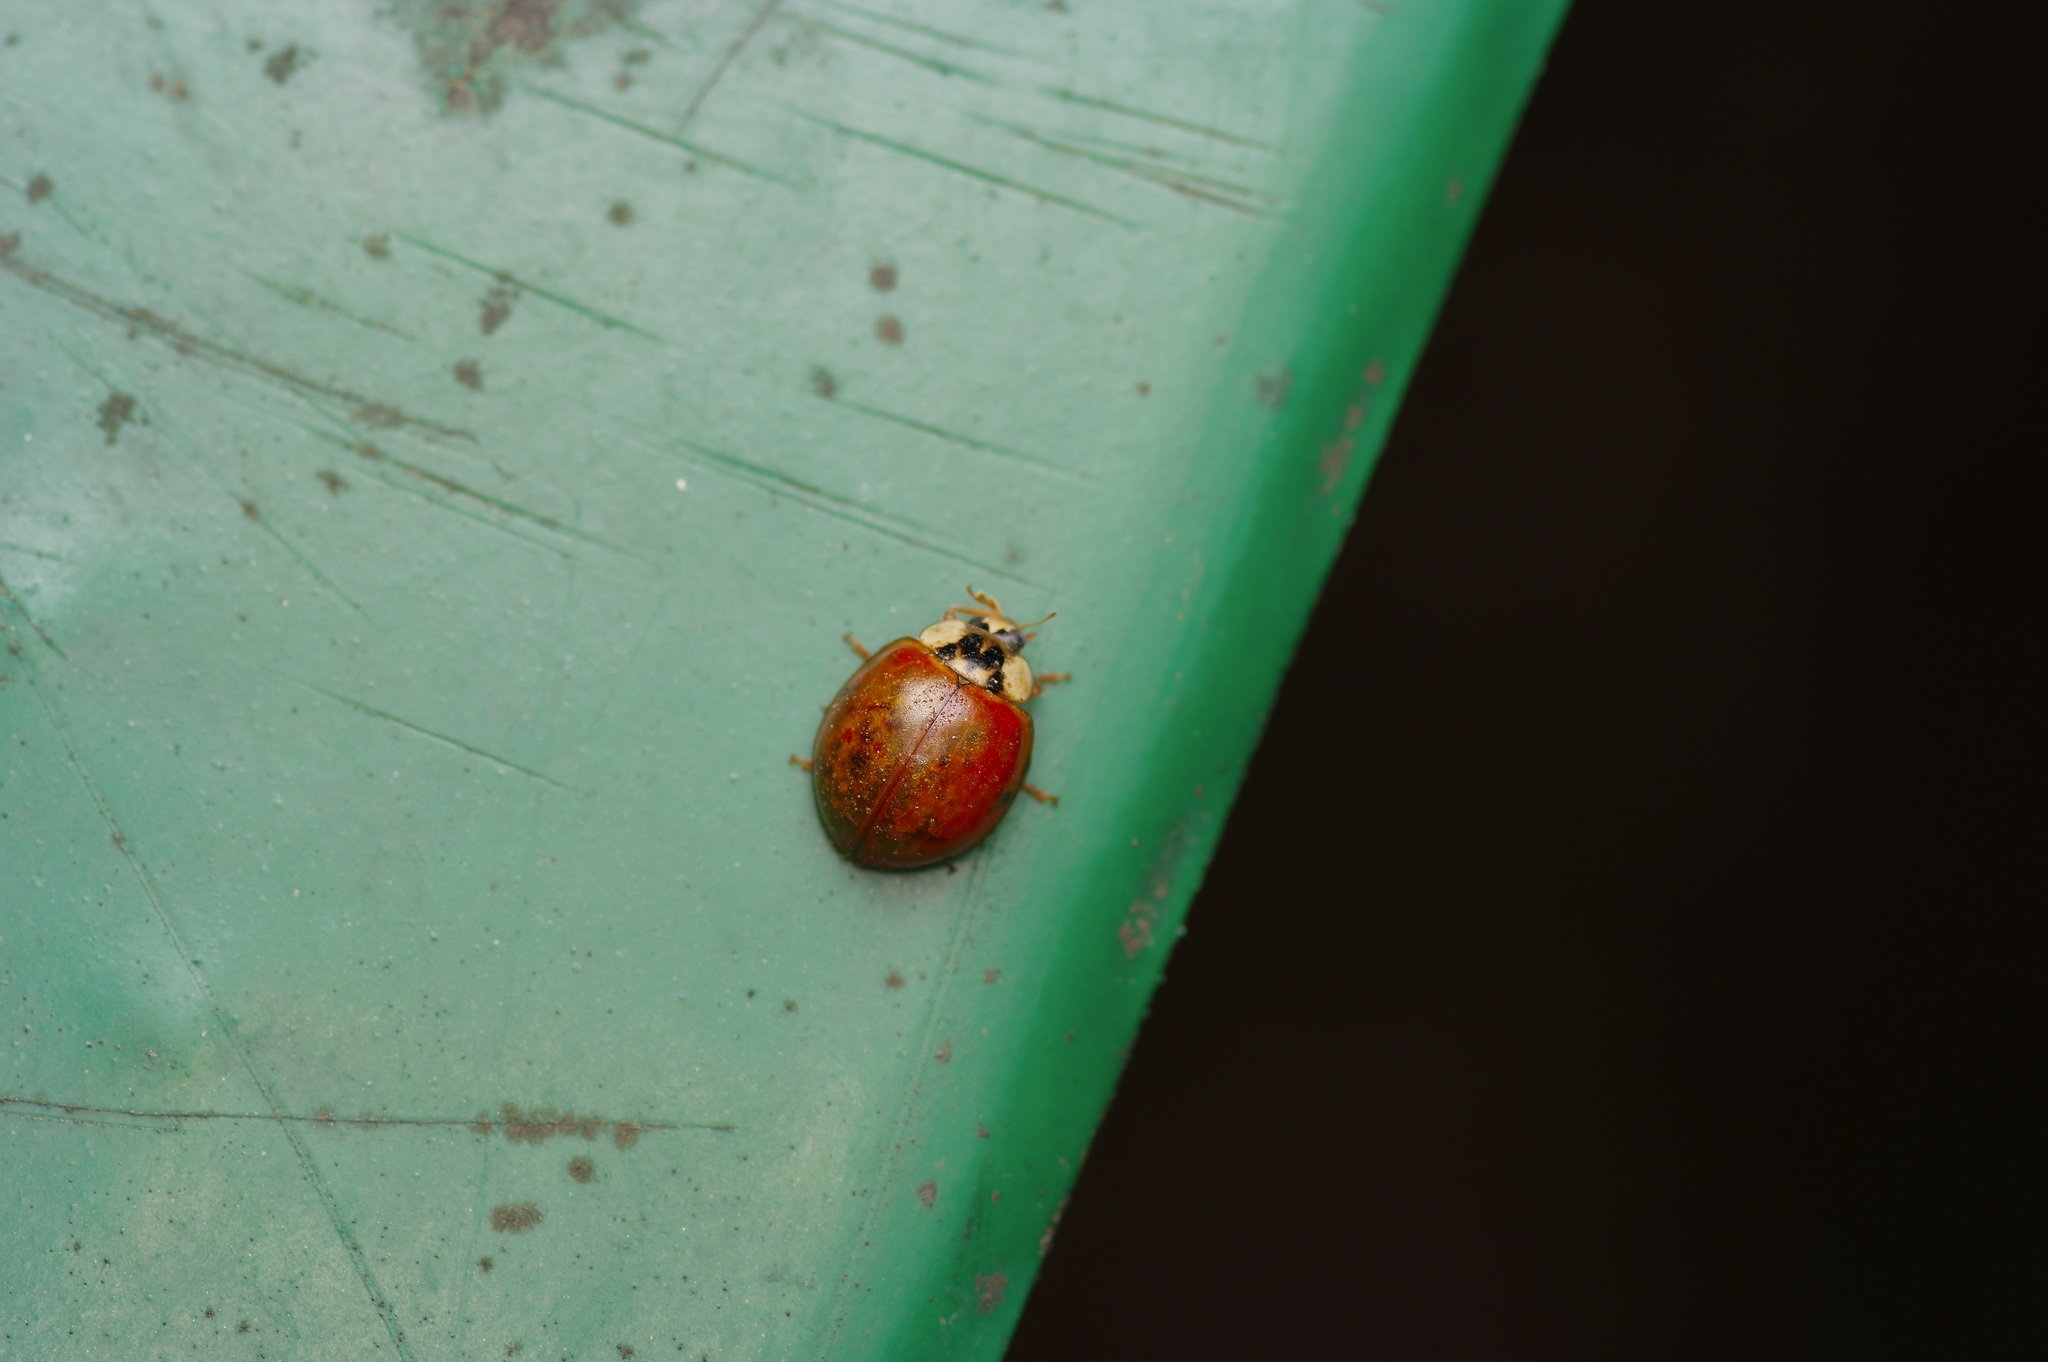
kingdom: Animalia
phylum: Arthropoda
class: Insecta
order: Coleoptera
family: Coccinellidae
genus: Harmonia
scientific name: Harmonia axyridis
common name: Harlequin ladybird
